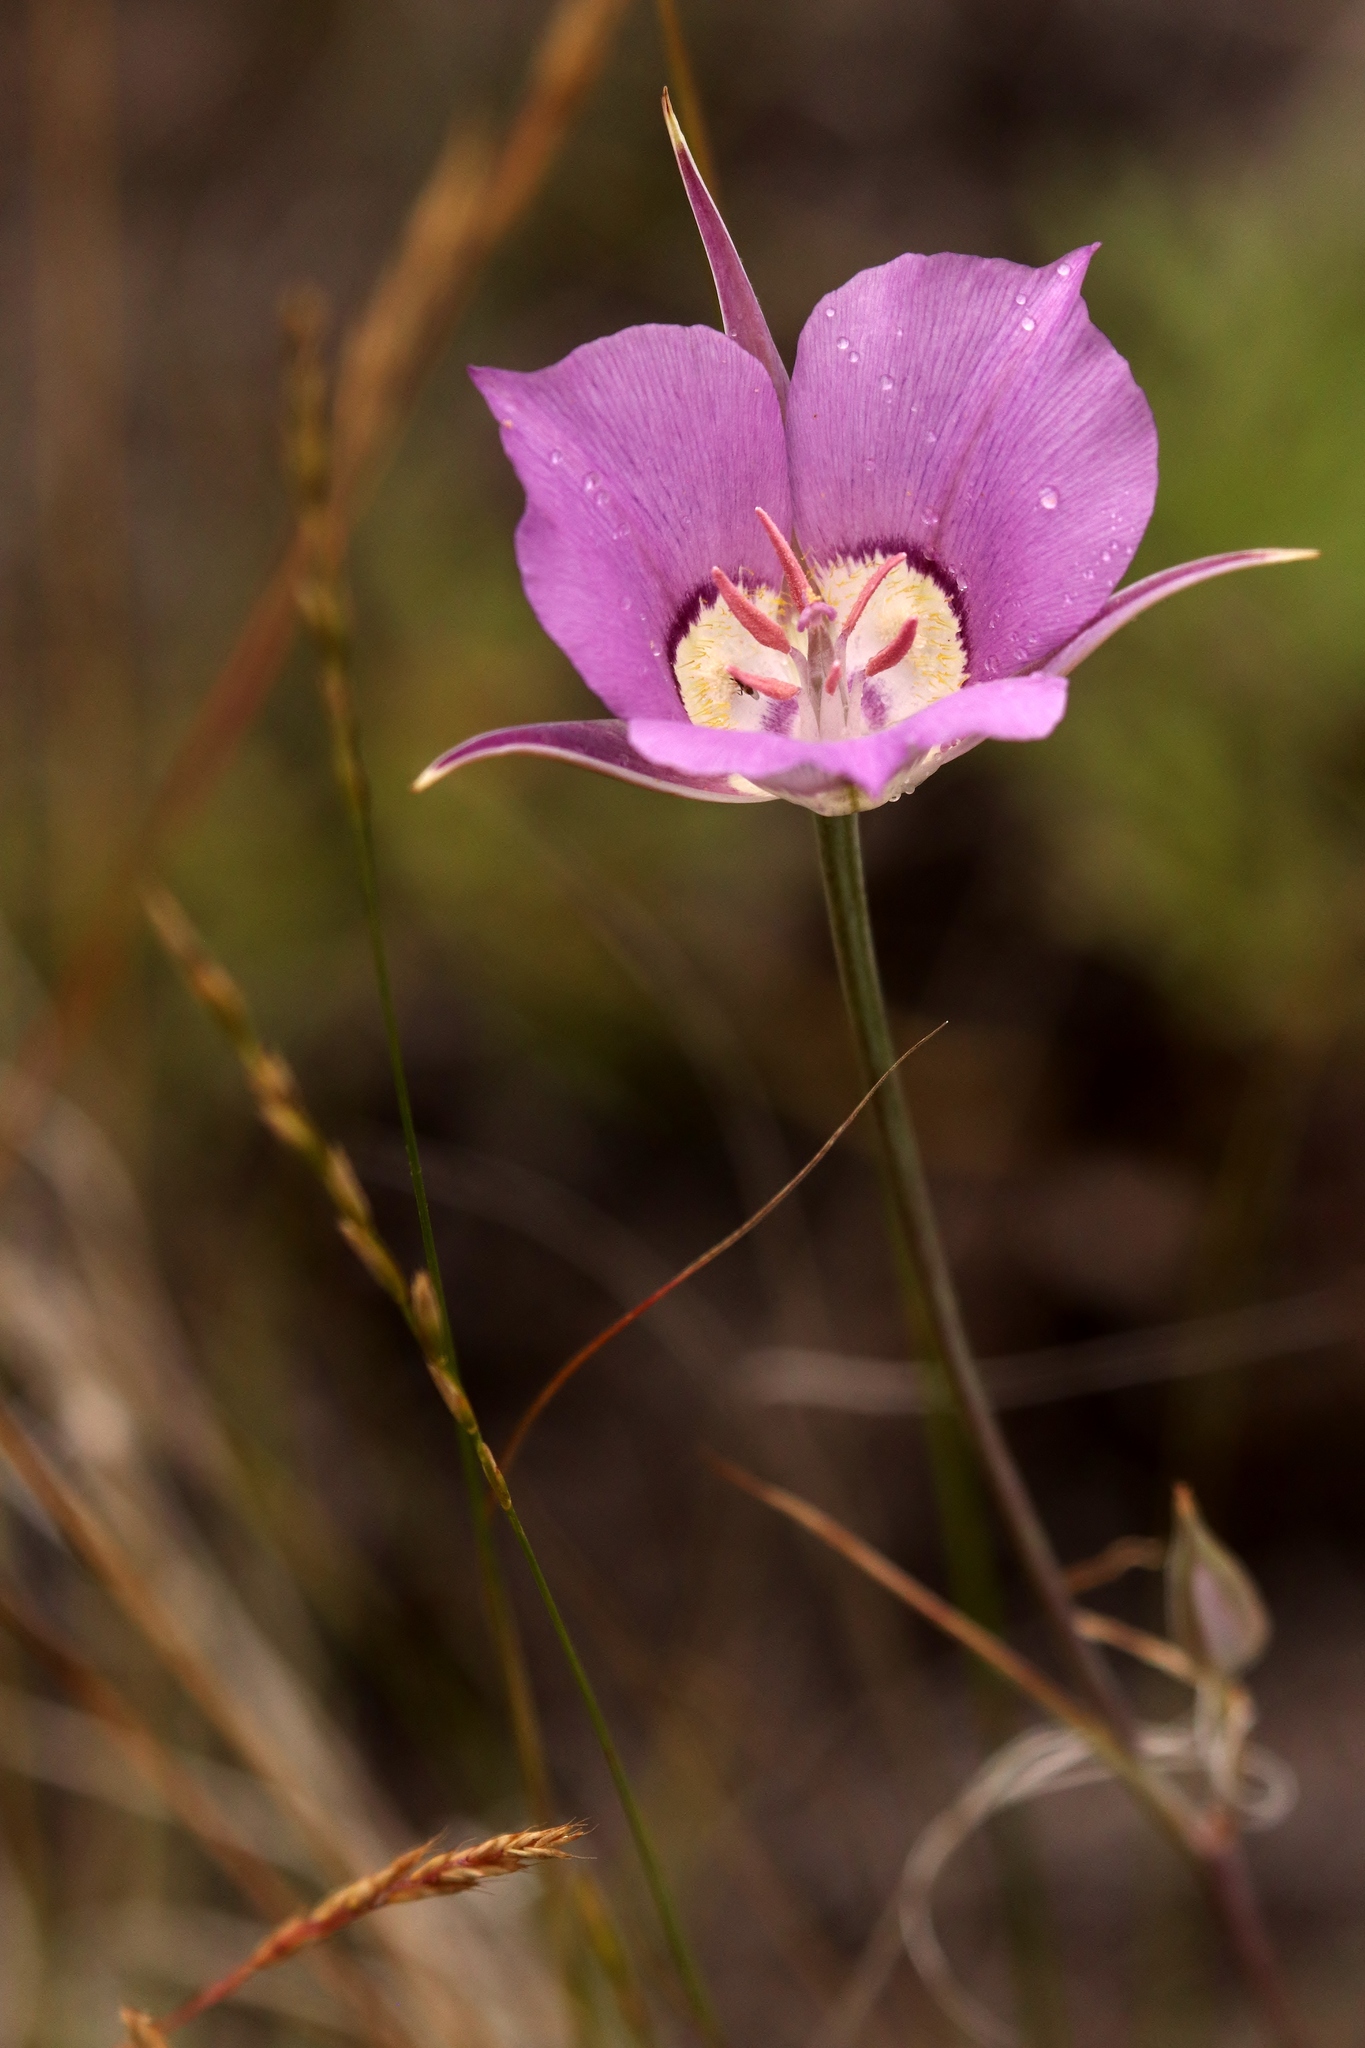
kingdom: Plantae
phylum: Tracheophyta
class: Liliopsida
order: Liliales
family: Liliaceae
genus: Calochortus
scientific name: Calochortus macrocarpus
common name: Green-band mariposa lily
